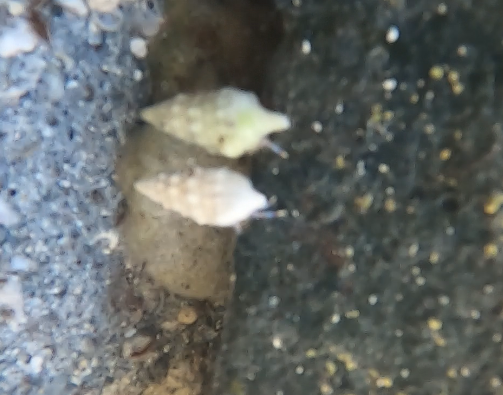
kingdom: Animalia
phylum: Arthropoda
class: Malacostraca
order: Decapoda
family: Diogenidae
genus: Clibanarius
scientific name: Clibanarius tricolor
